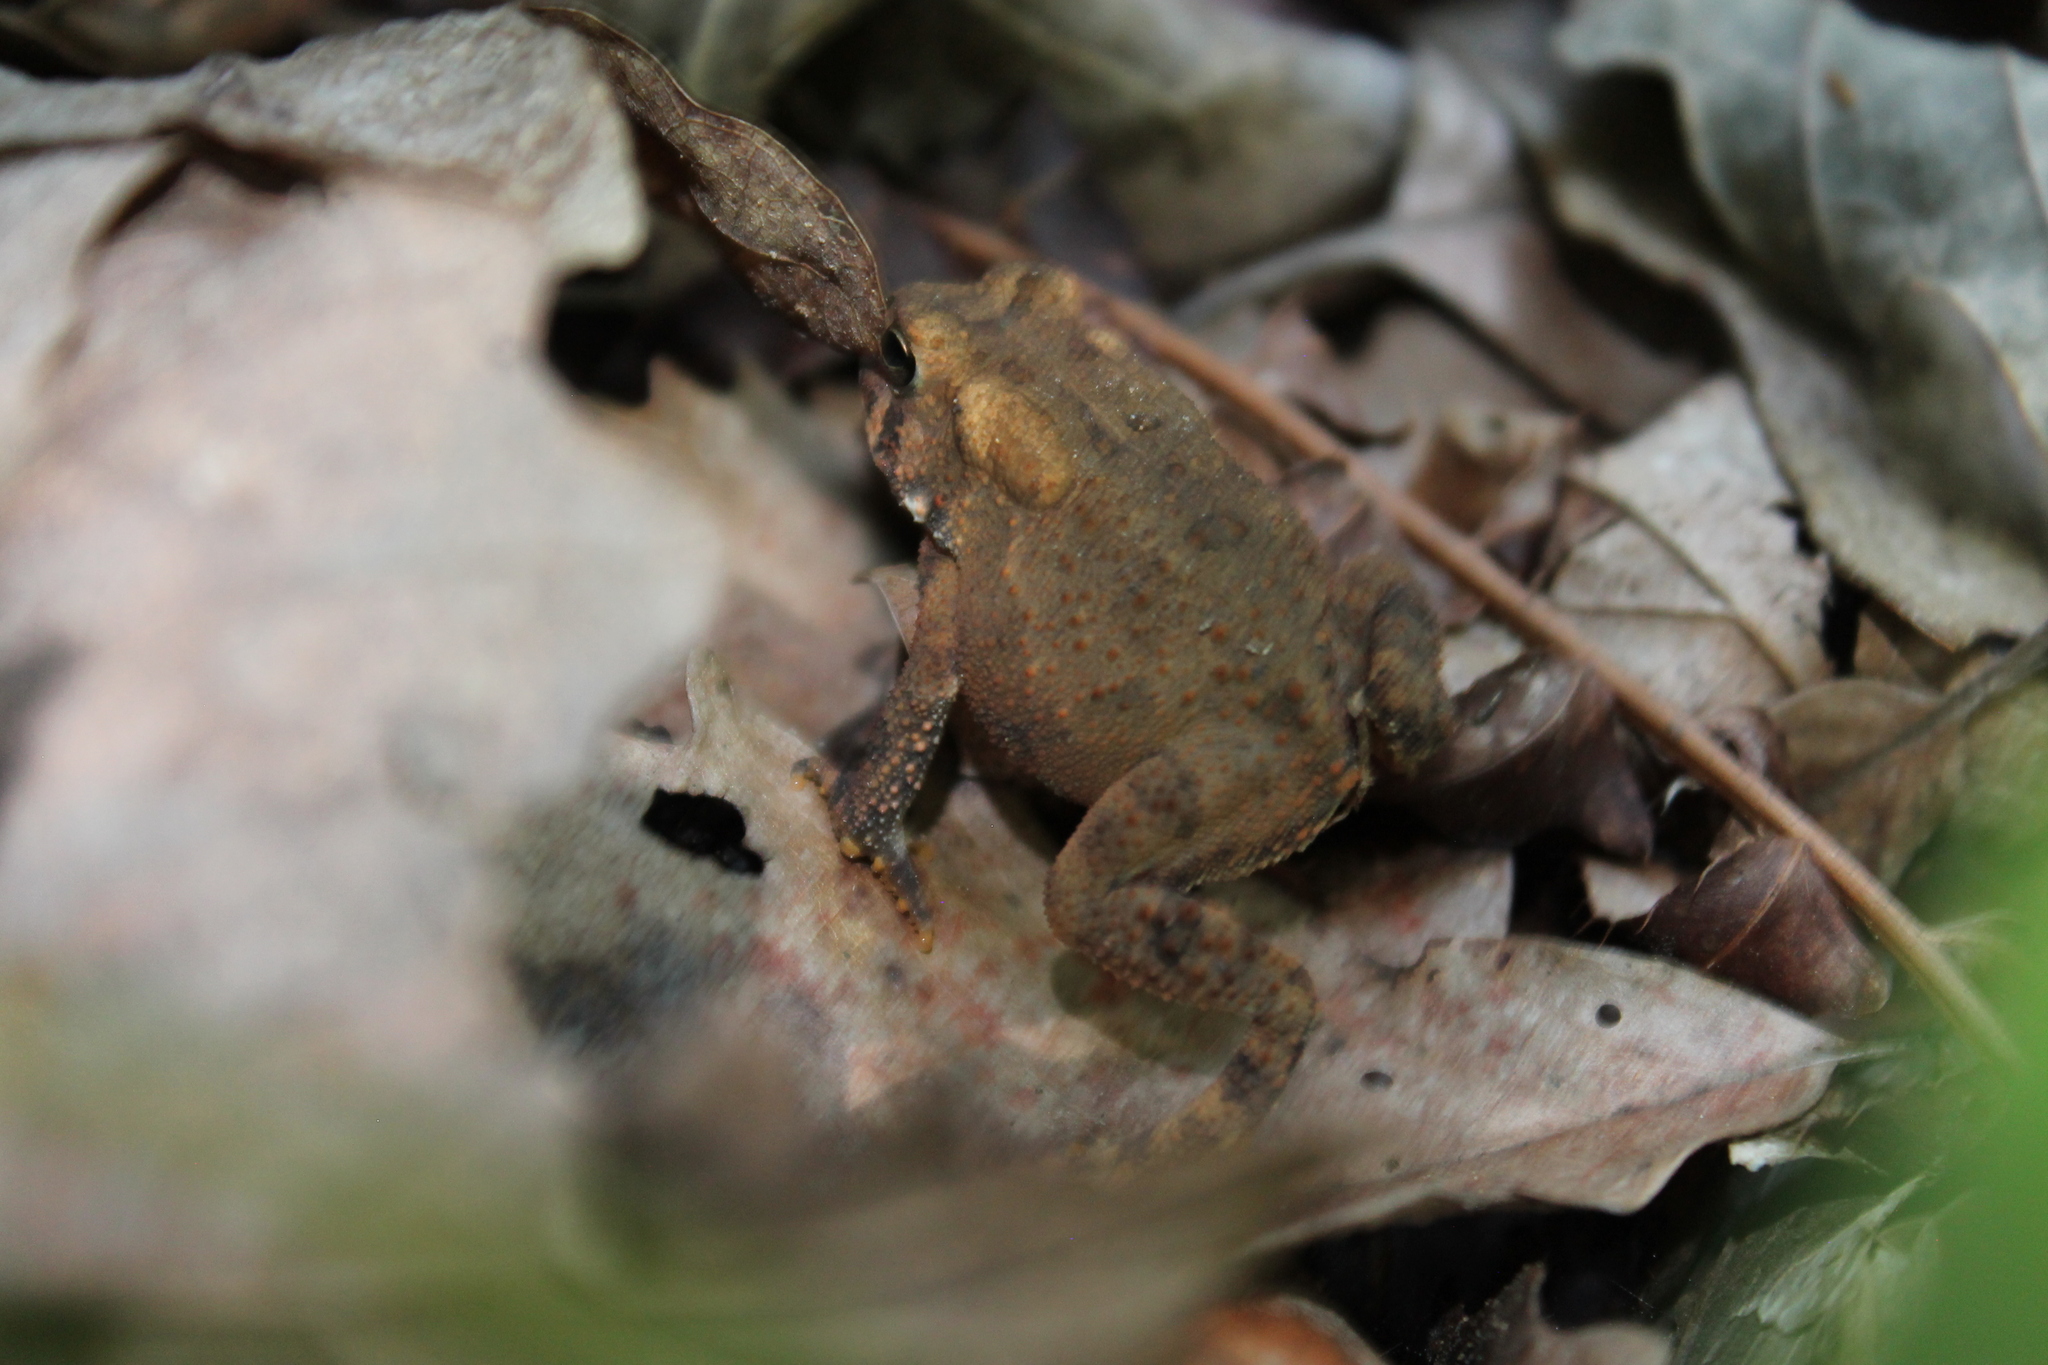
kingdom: Animalia
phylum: Chordata
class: Amphibia
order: Anura
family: Bufonidae
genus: Anaxyrus
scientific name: Anaxyrus americanus
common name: American toad
